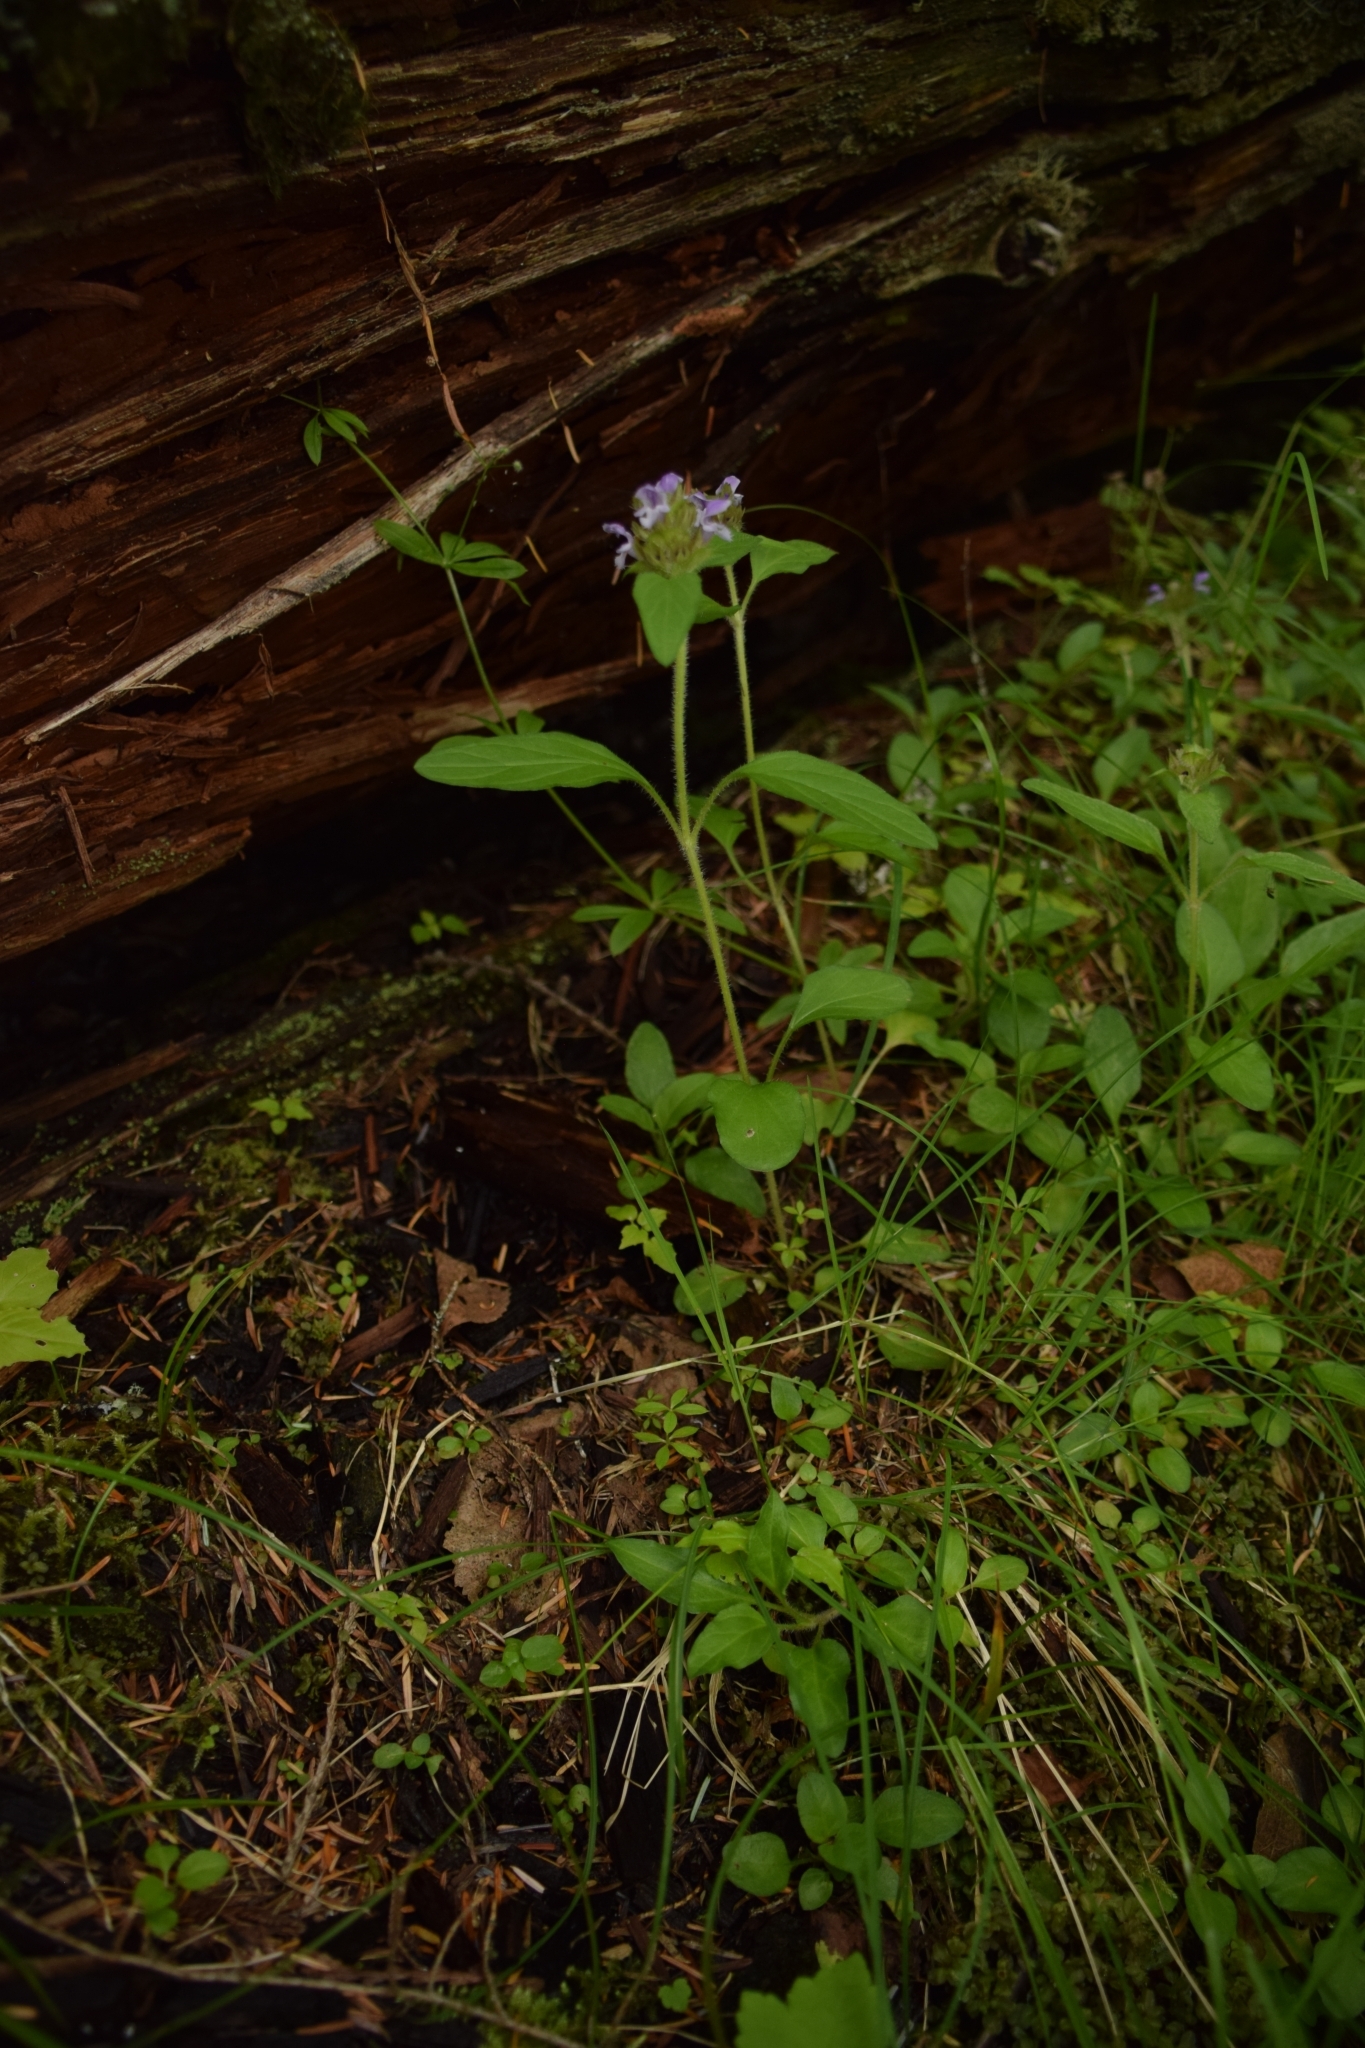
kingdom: Plantae
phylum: Tracheophyta
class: Magnoliopsida
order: Lamiales
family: Lamiaceae
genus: Prunella
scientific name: Prunella vulgaris
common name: Heal-all
